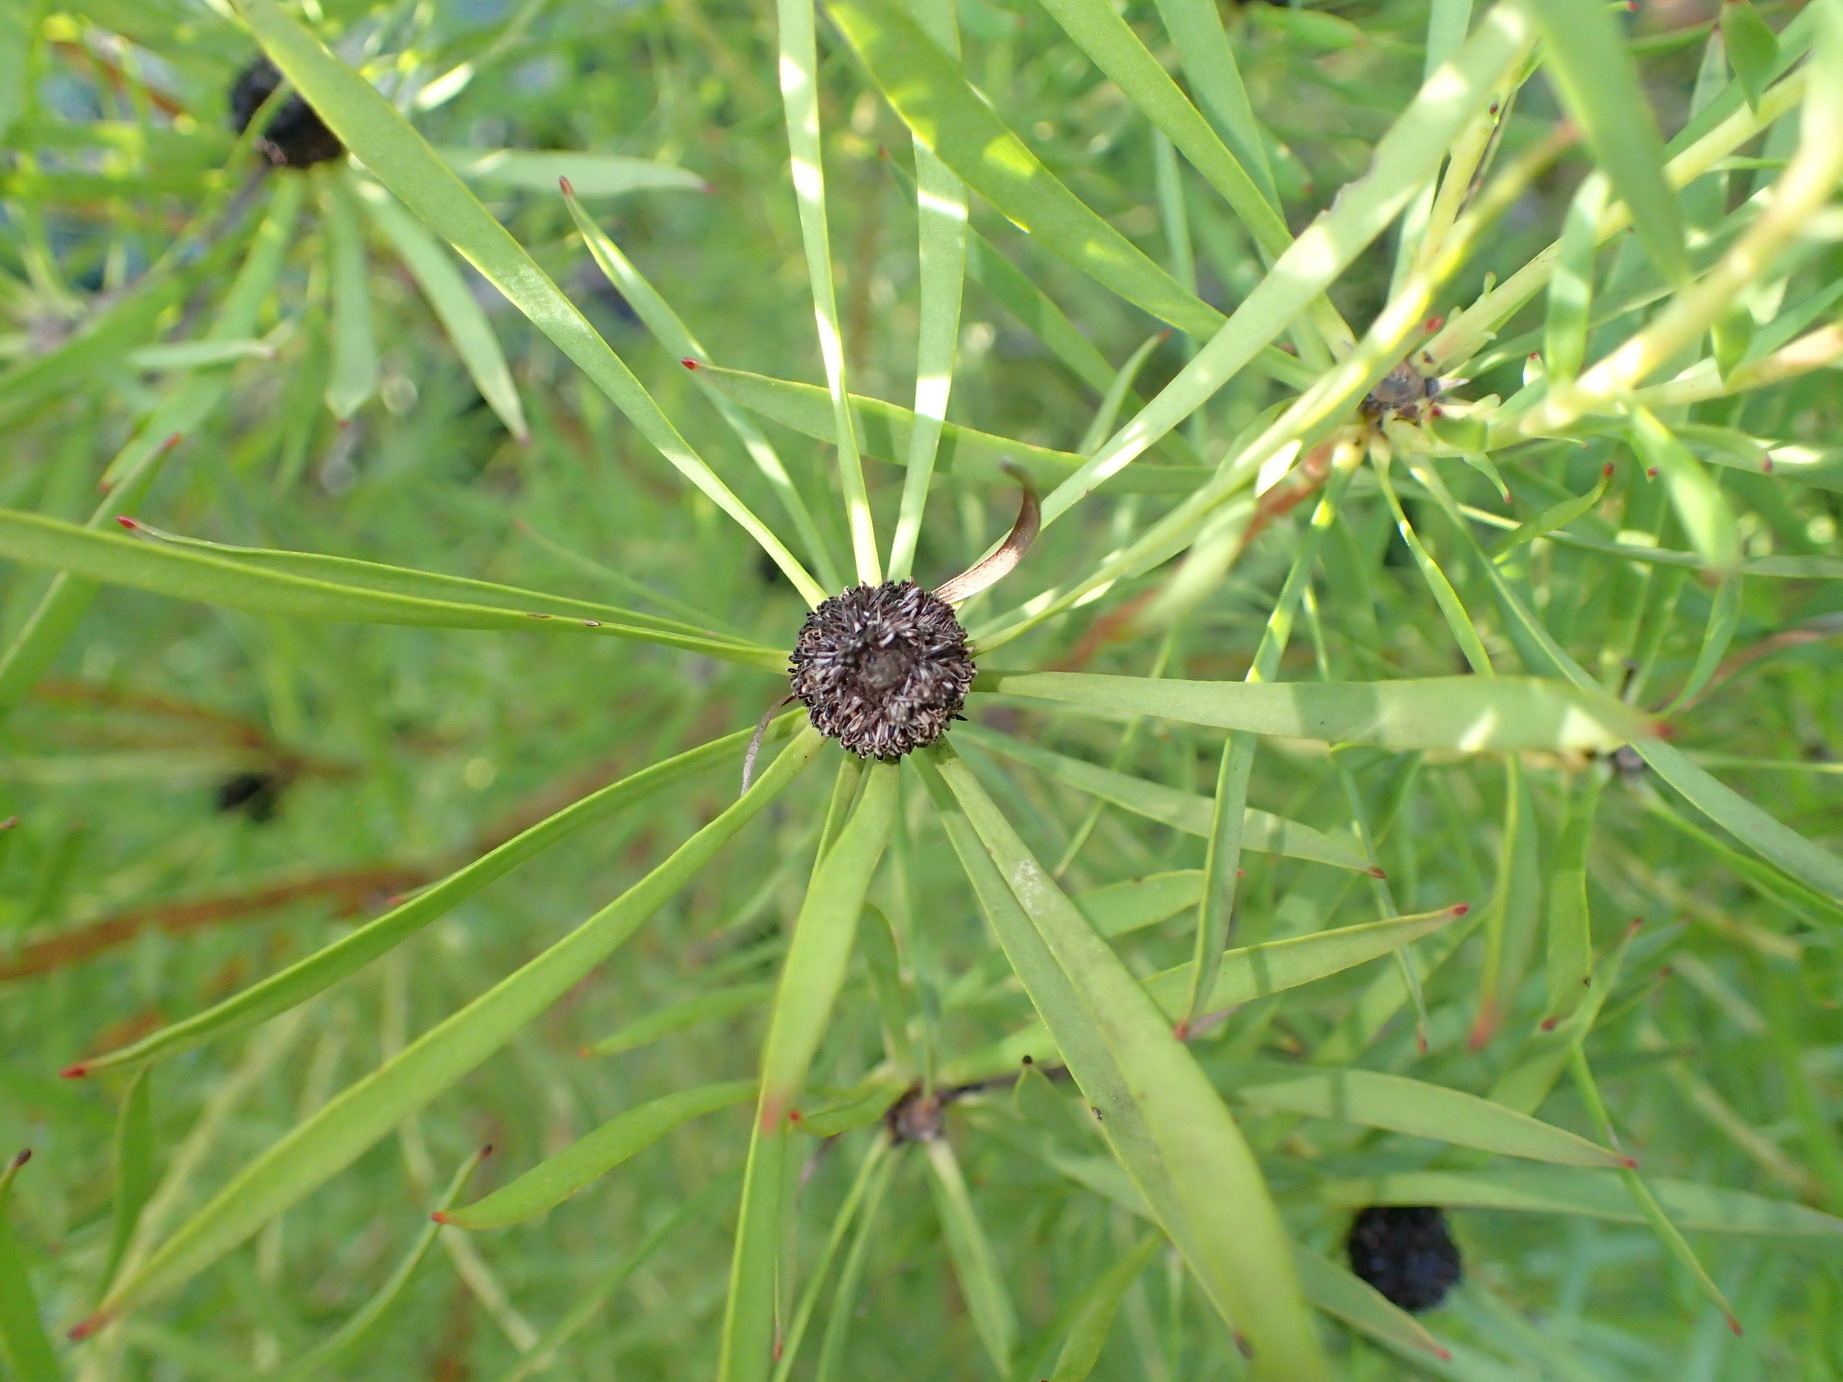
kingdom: Plantae
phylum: Tracheophyta
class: Magnoliopsida
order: Proteales
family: Proteaceae
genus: Leucadendron
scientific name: Leucadendron salignum
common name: Common sunshine conebush
